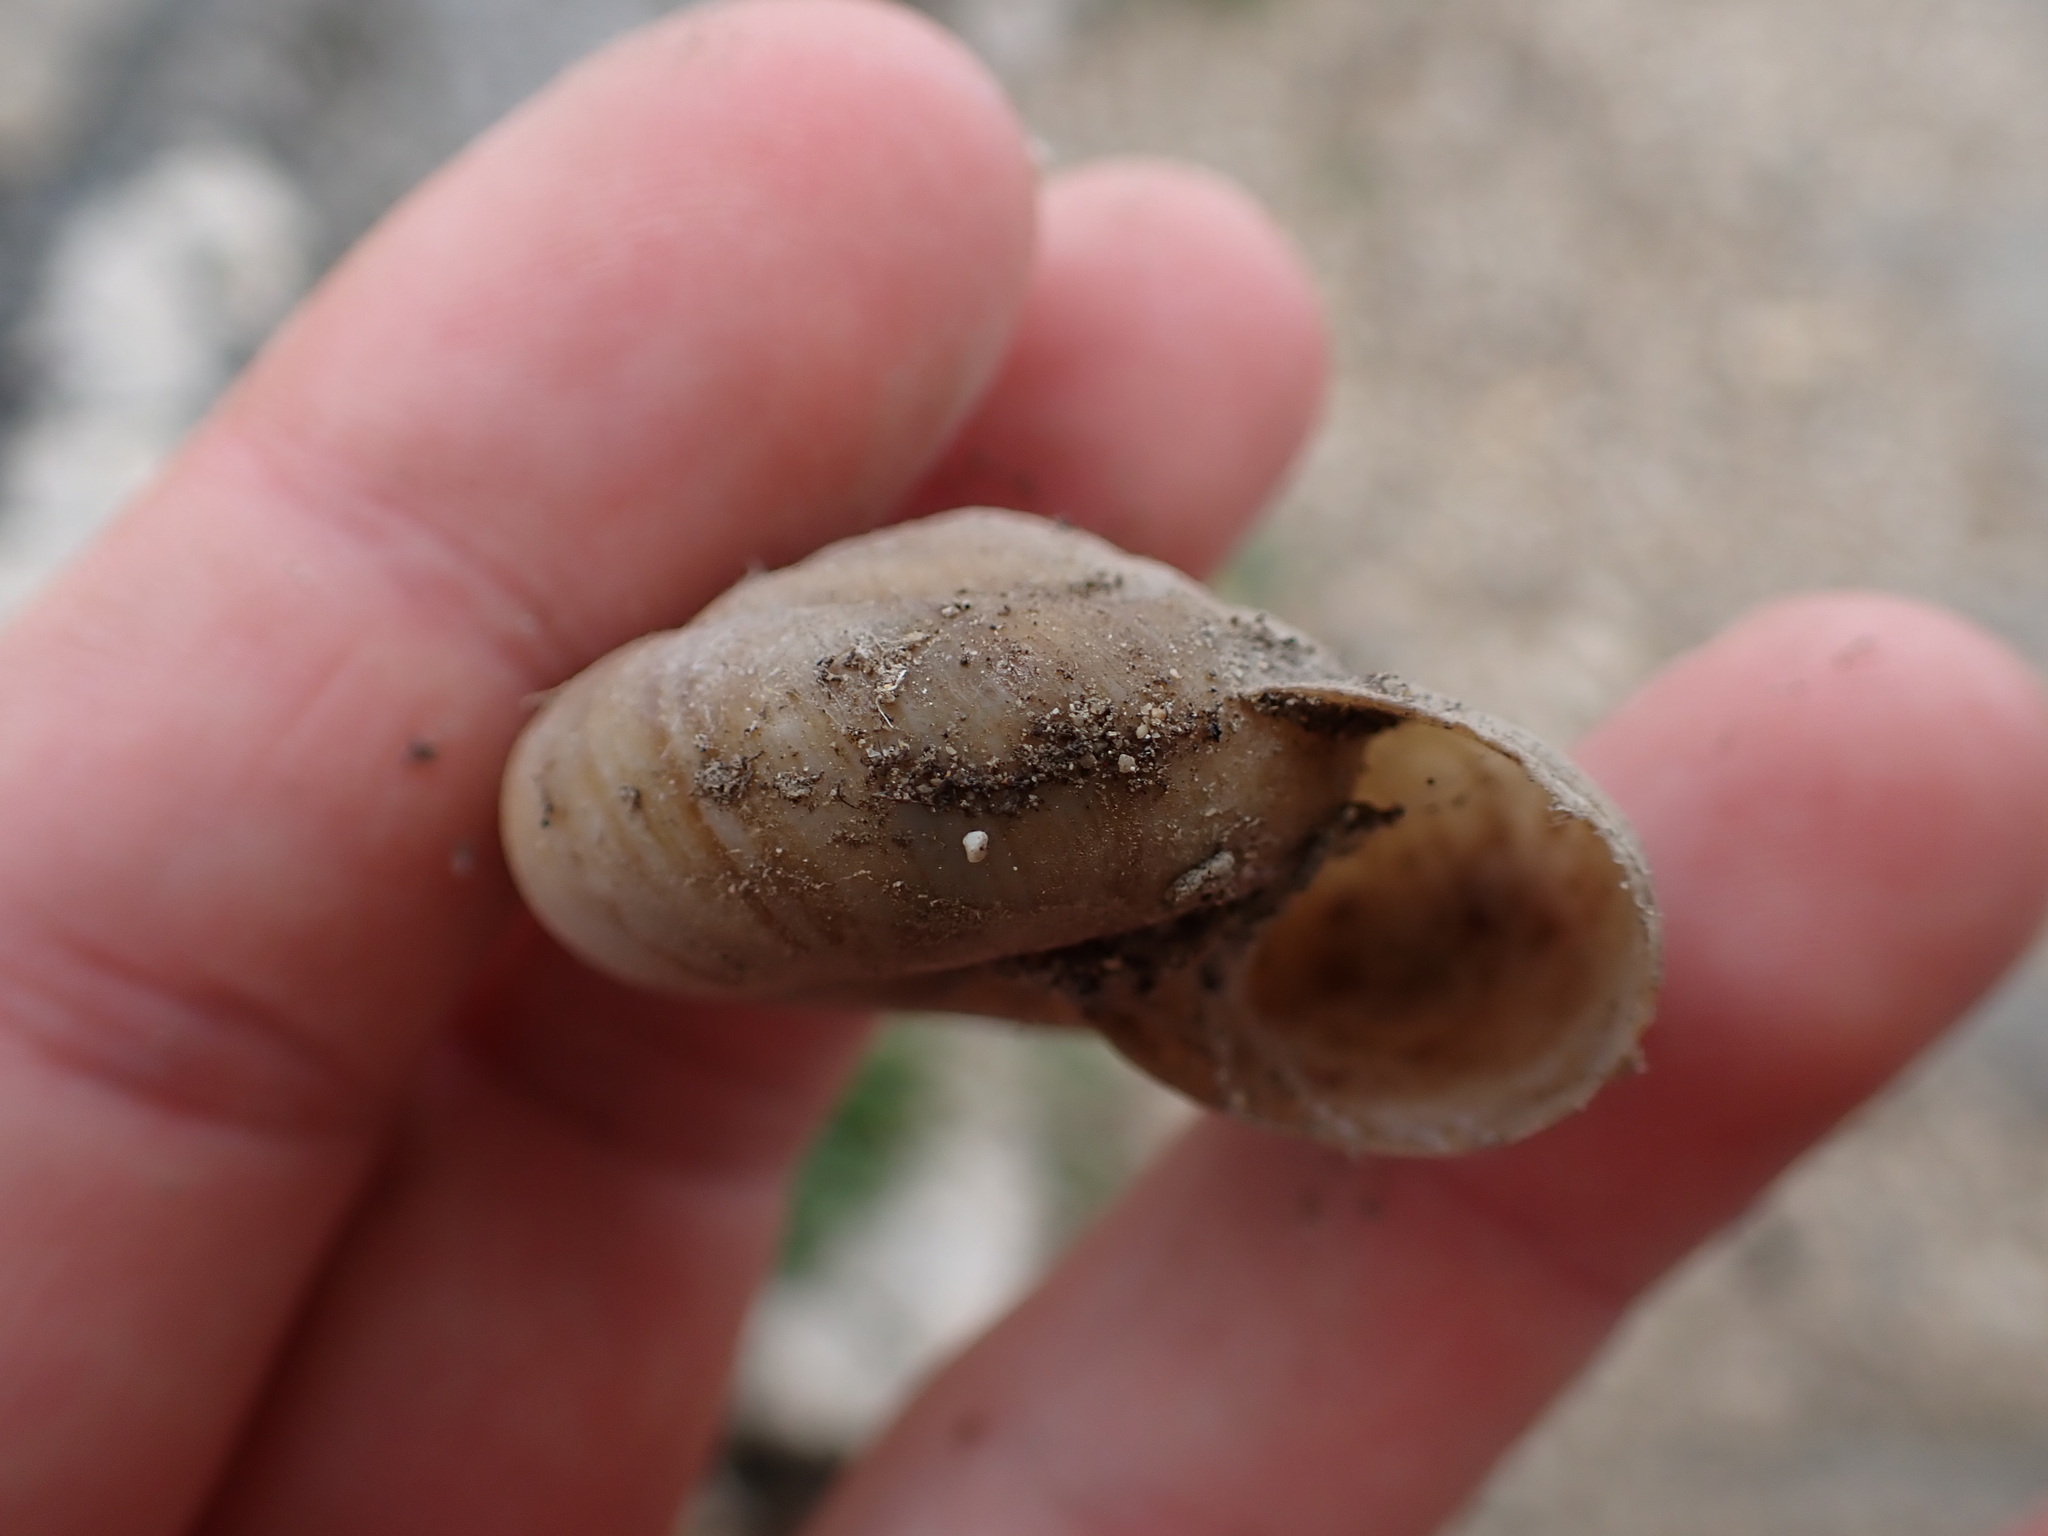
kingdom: Animalia
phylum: Mollusca
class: Gastropoda
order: Stylommatophora
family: Zonitidae
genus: Zonites
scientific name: Zonites algirus
